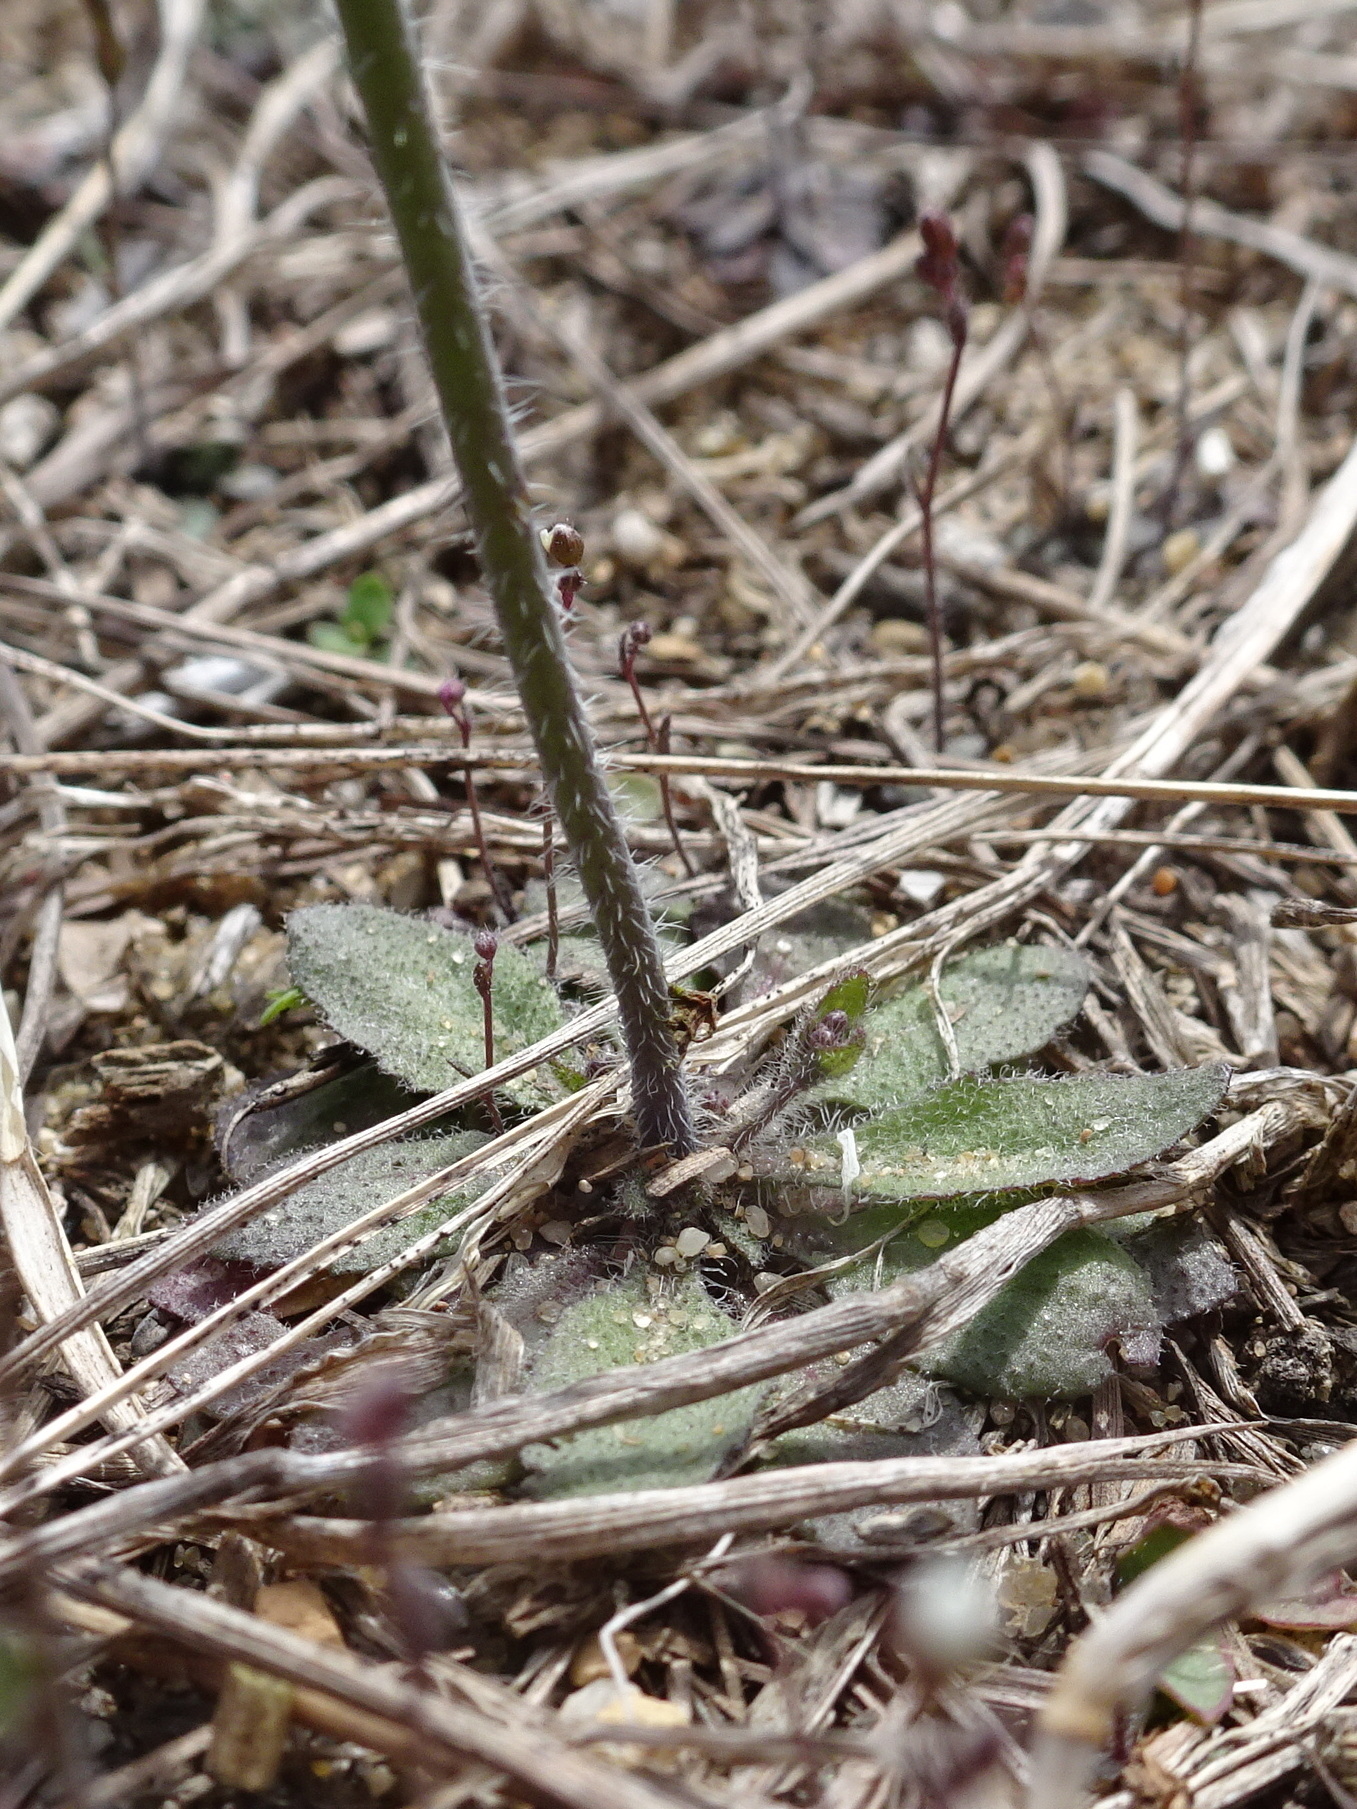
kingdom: Plantae
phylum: Tracheophyta
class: Magnoliopsida
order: Brassicales
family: Brassicaceae
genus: Arabidopsis
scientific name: Arabidopsis thaliana
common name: Thale cress
